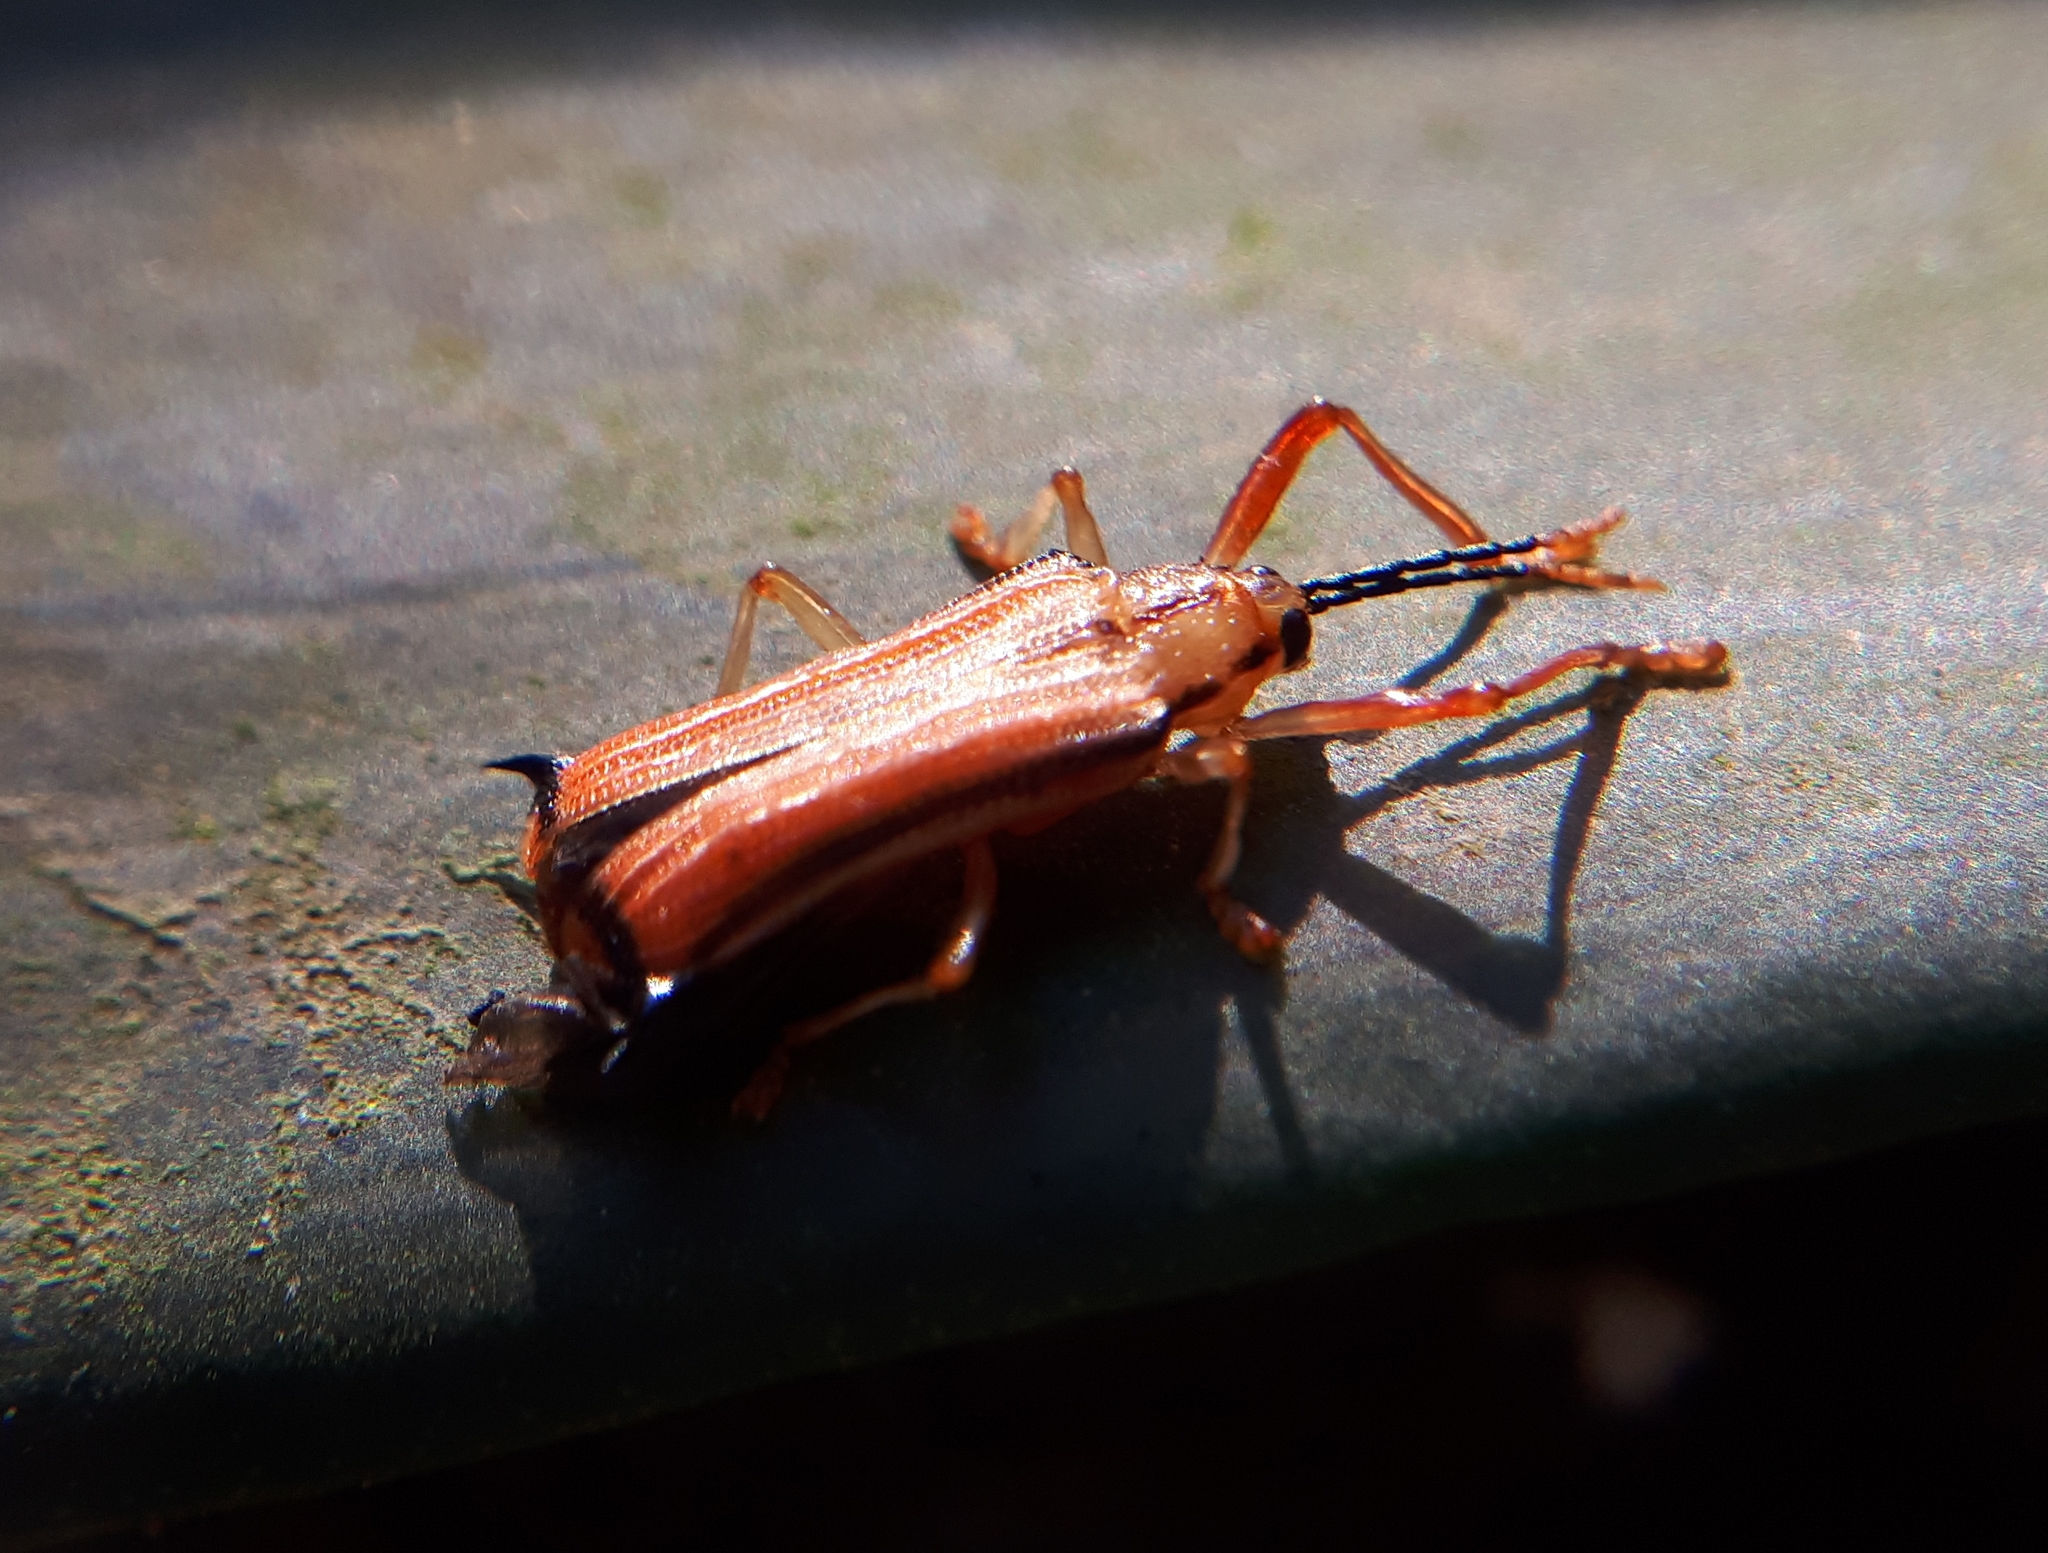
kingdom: Animalia
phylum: Arthropoda
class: Insecta
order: Coleoptera
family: Chrysomelidae
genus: Sceloenopla
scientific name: Sceloenopla bidens
